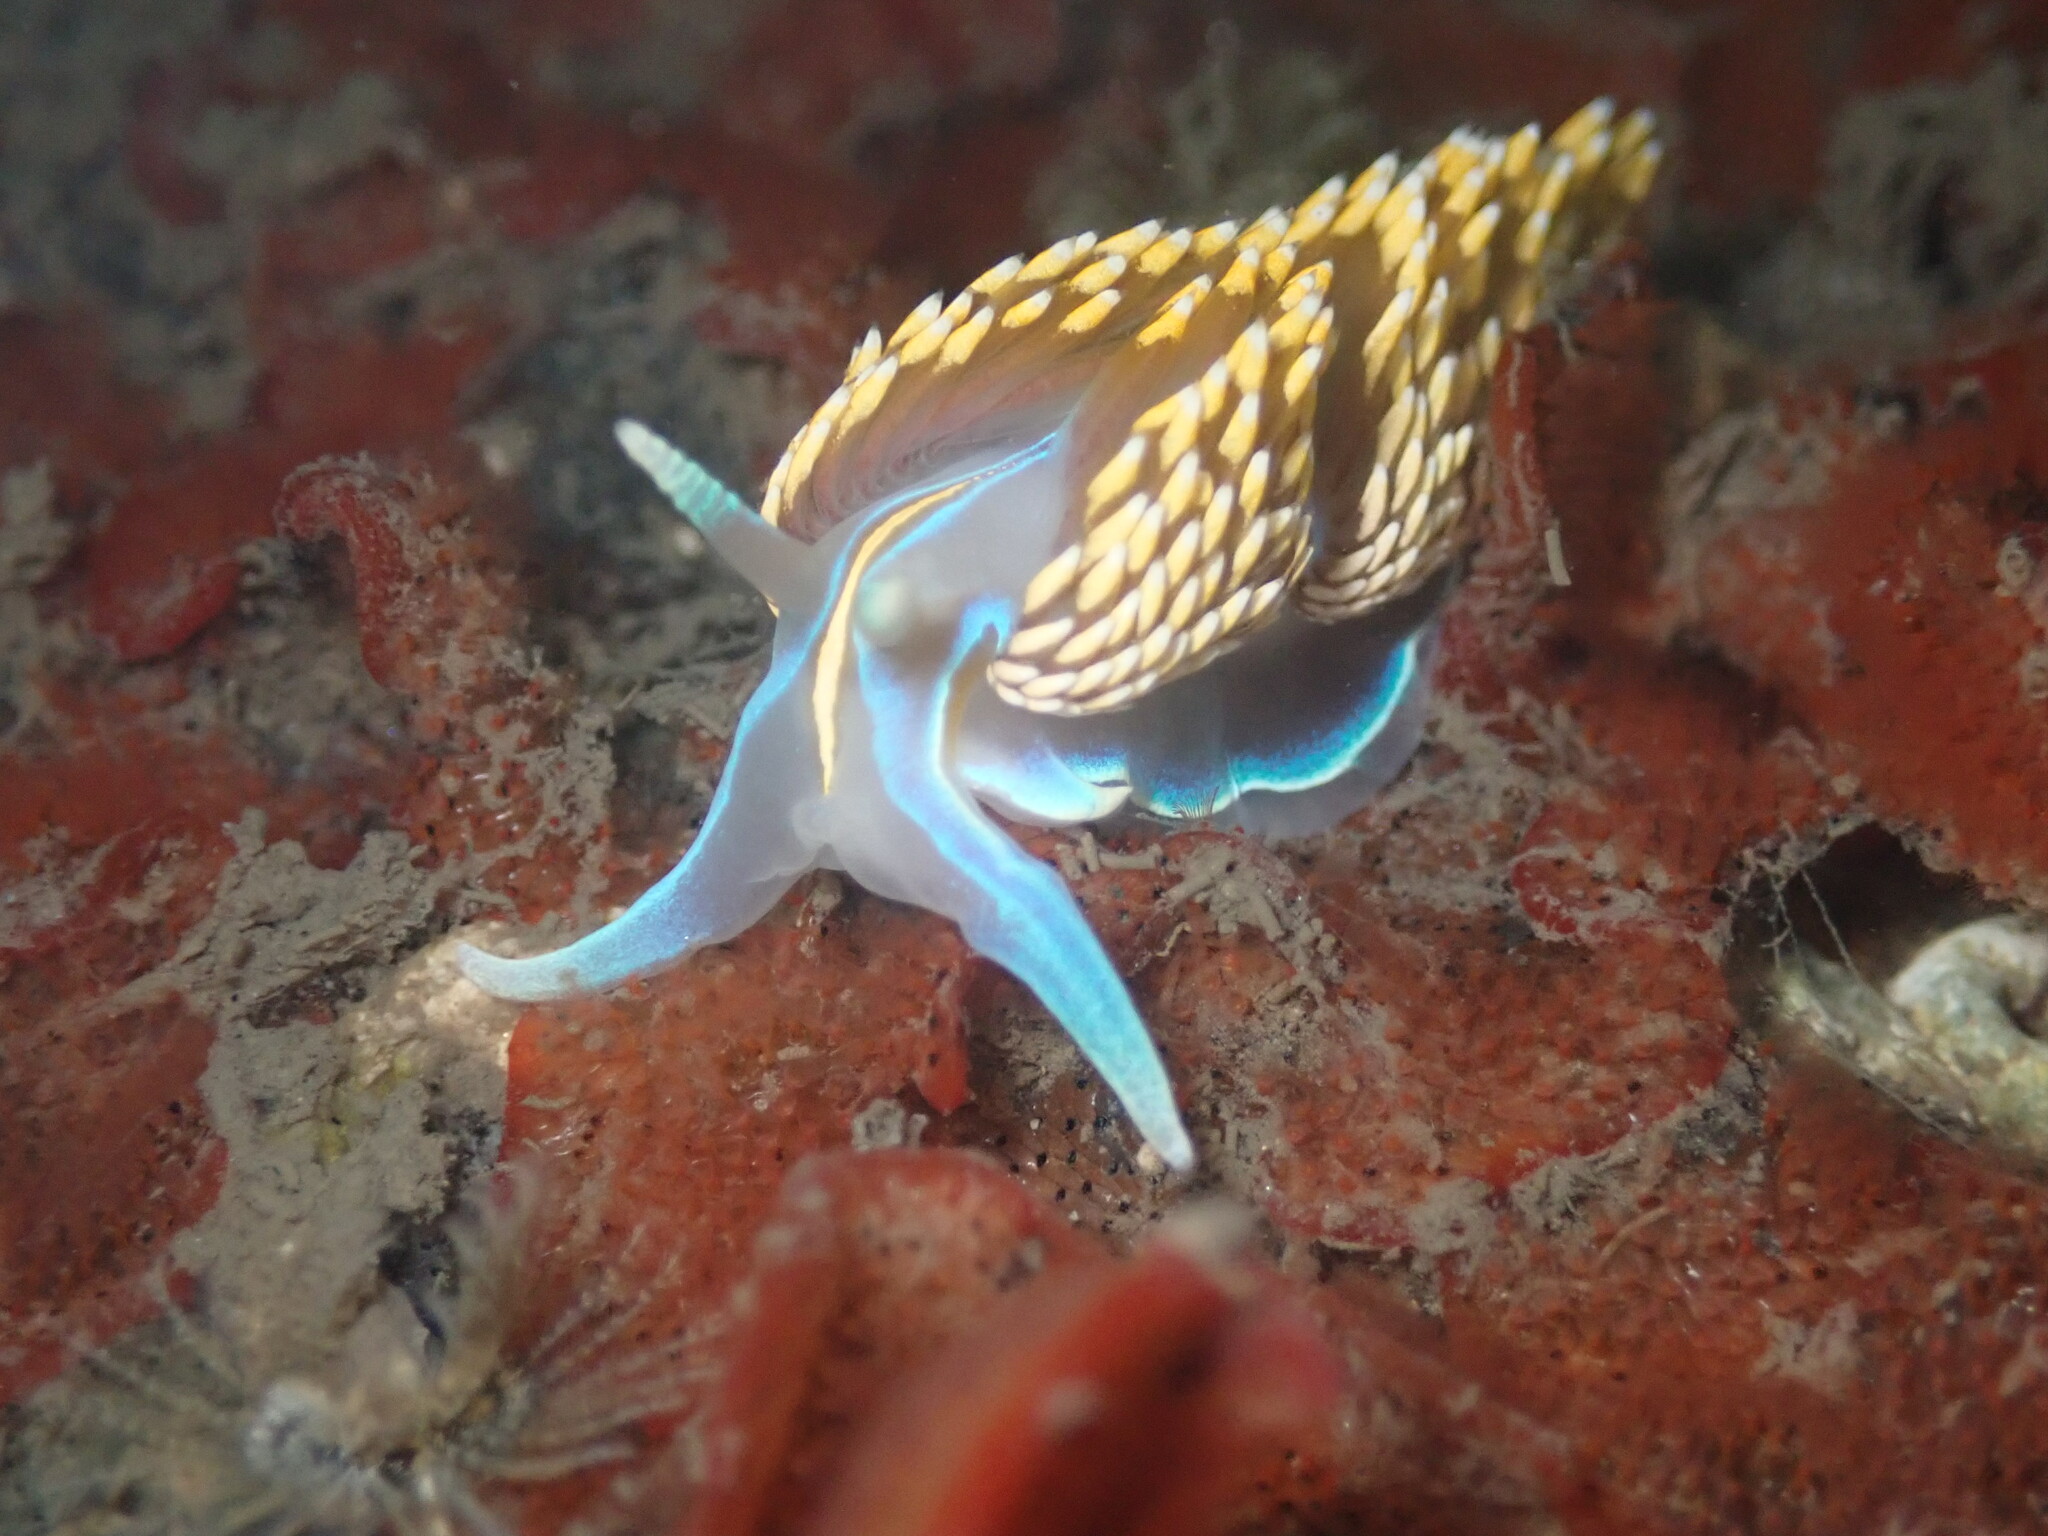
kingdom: Animalia
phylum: Mollusca
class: Gastropoda
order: Nudibranchia
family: Myrrhinidae
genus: Hermissenda
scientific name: Hermissenda opalescens
